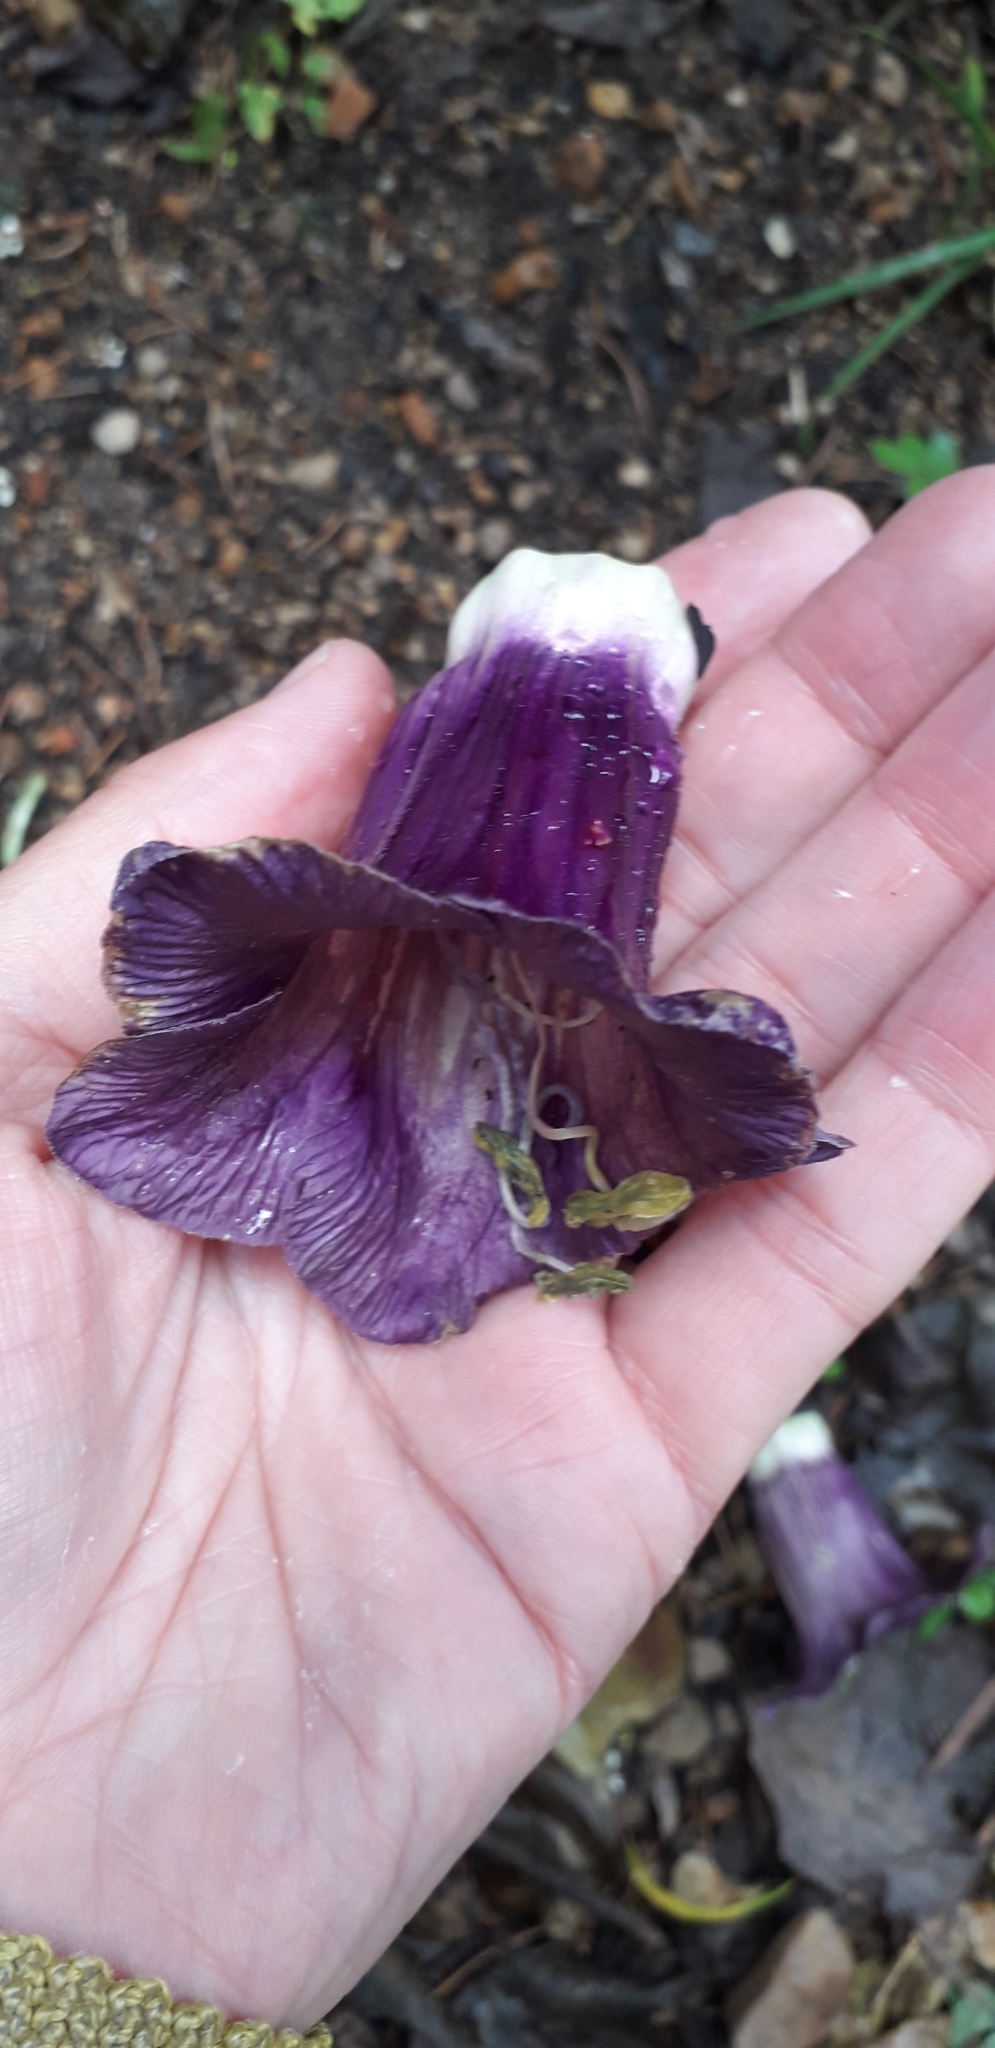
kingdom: Plantae
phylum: Tracheophyta
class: Magnoliopsida
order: Ericales
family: Polemoniaceae
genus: Cobaea
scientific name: Cobaea scandens
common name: Cup-and-saucer-vine
